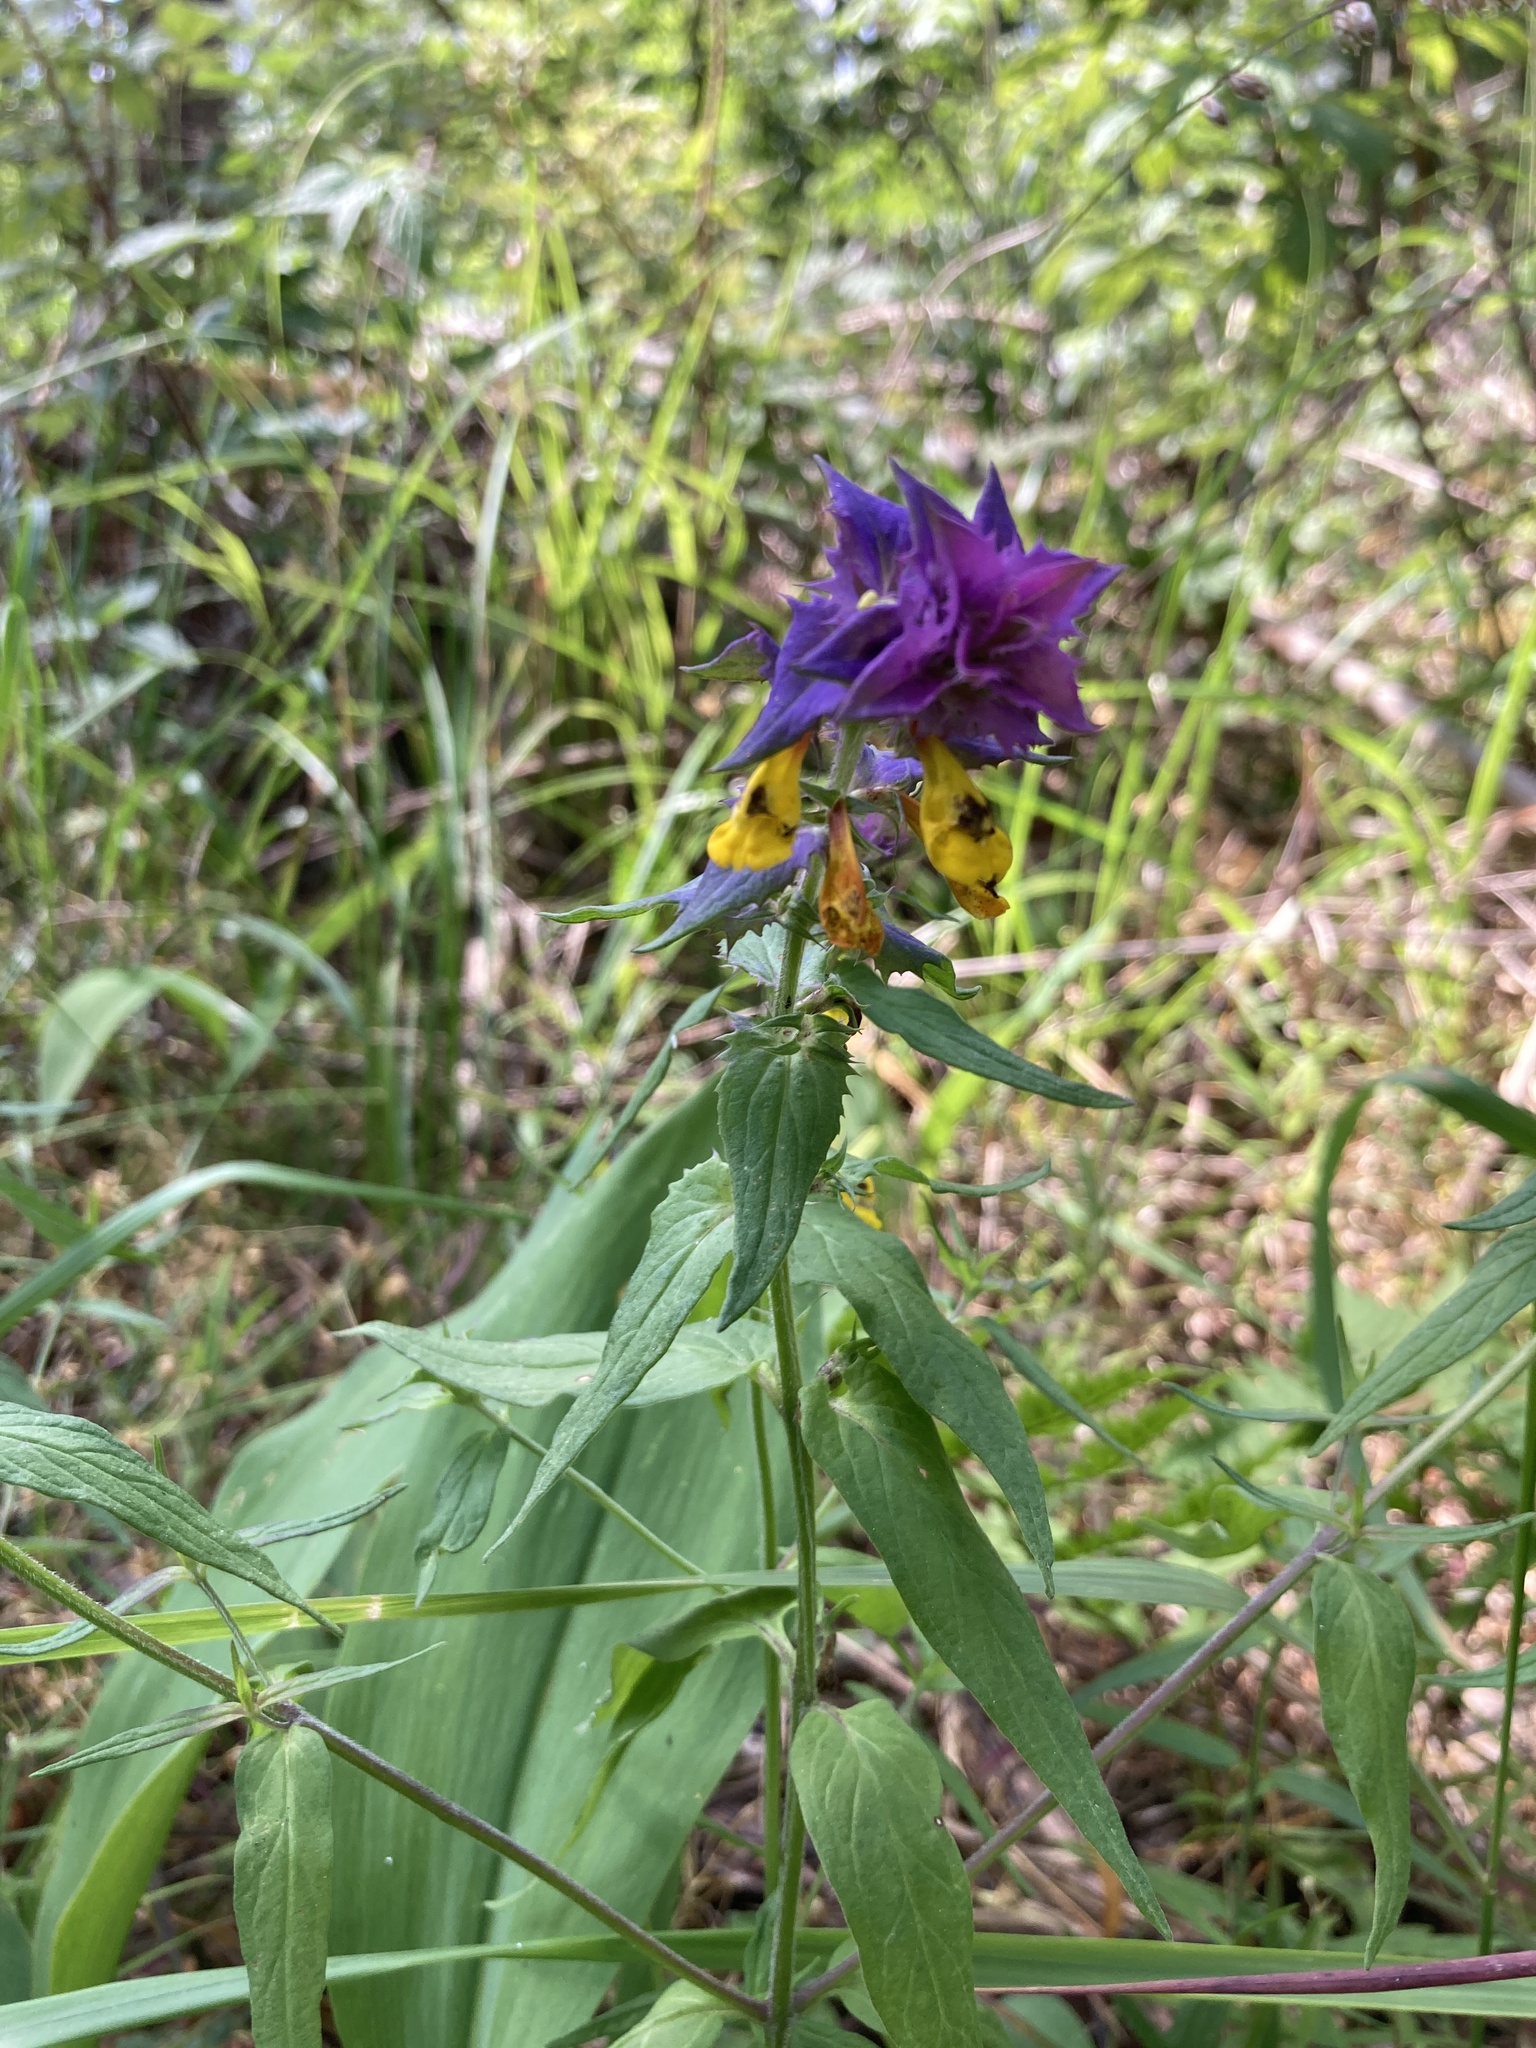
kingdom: Plantae
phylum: Tracheophyta
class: Magnoliopsida
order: Lamiales
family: Orobanchaceae
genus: Melampyrum
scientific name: Melampyrum nemorosum
